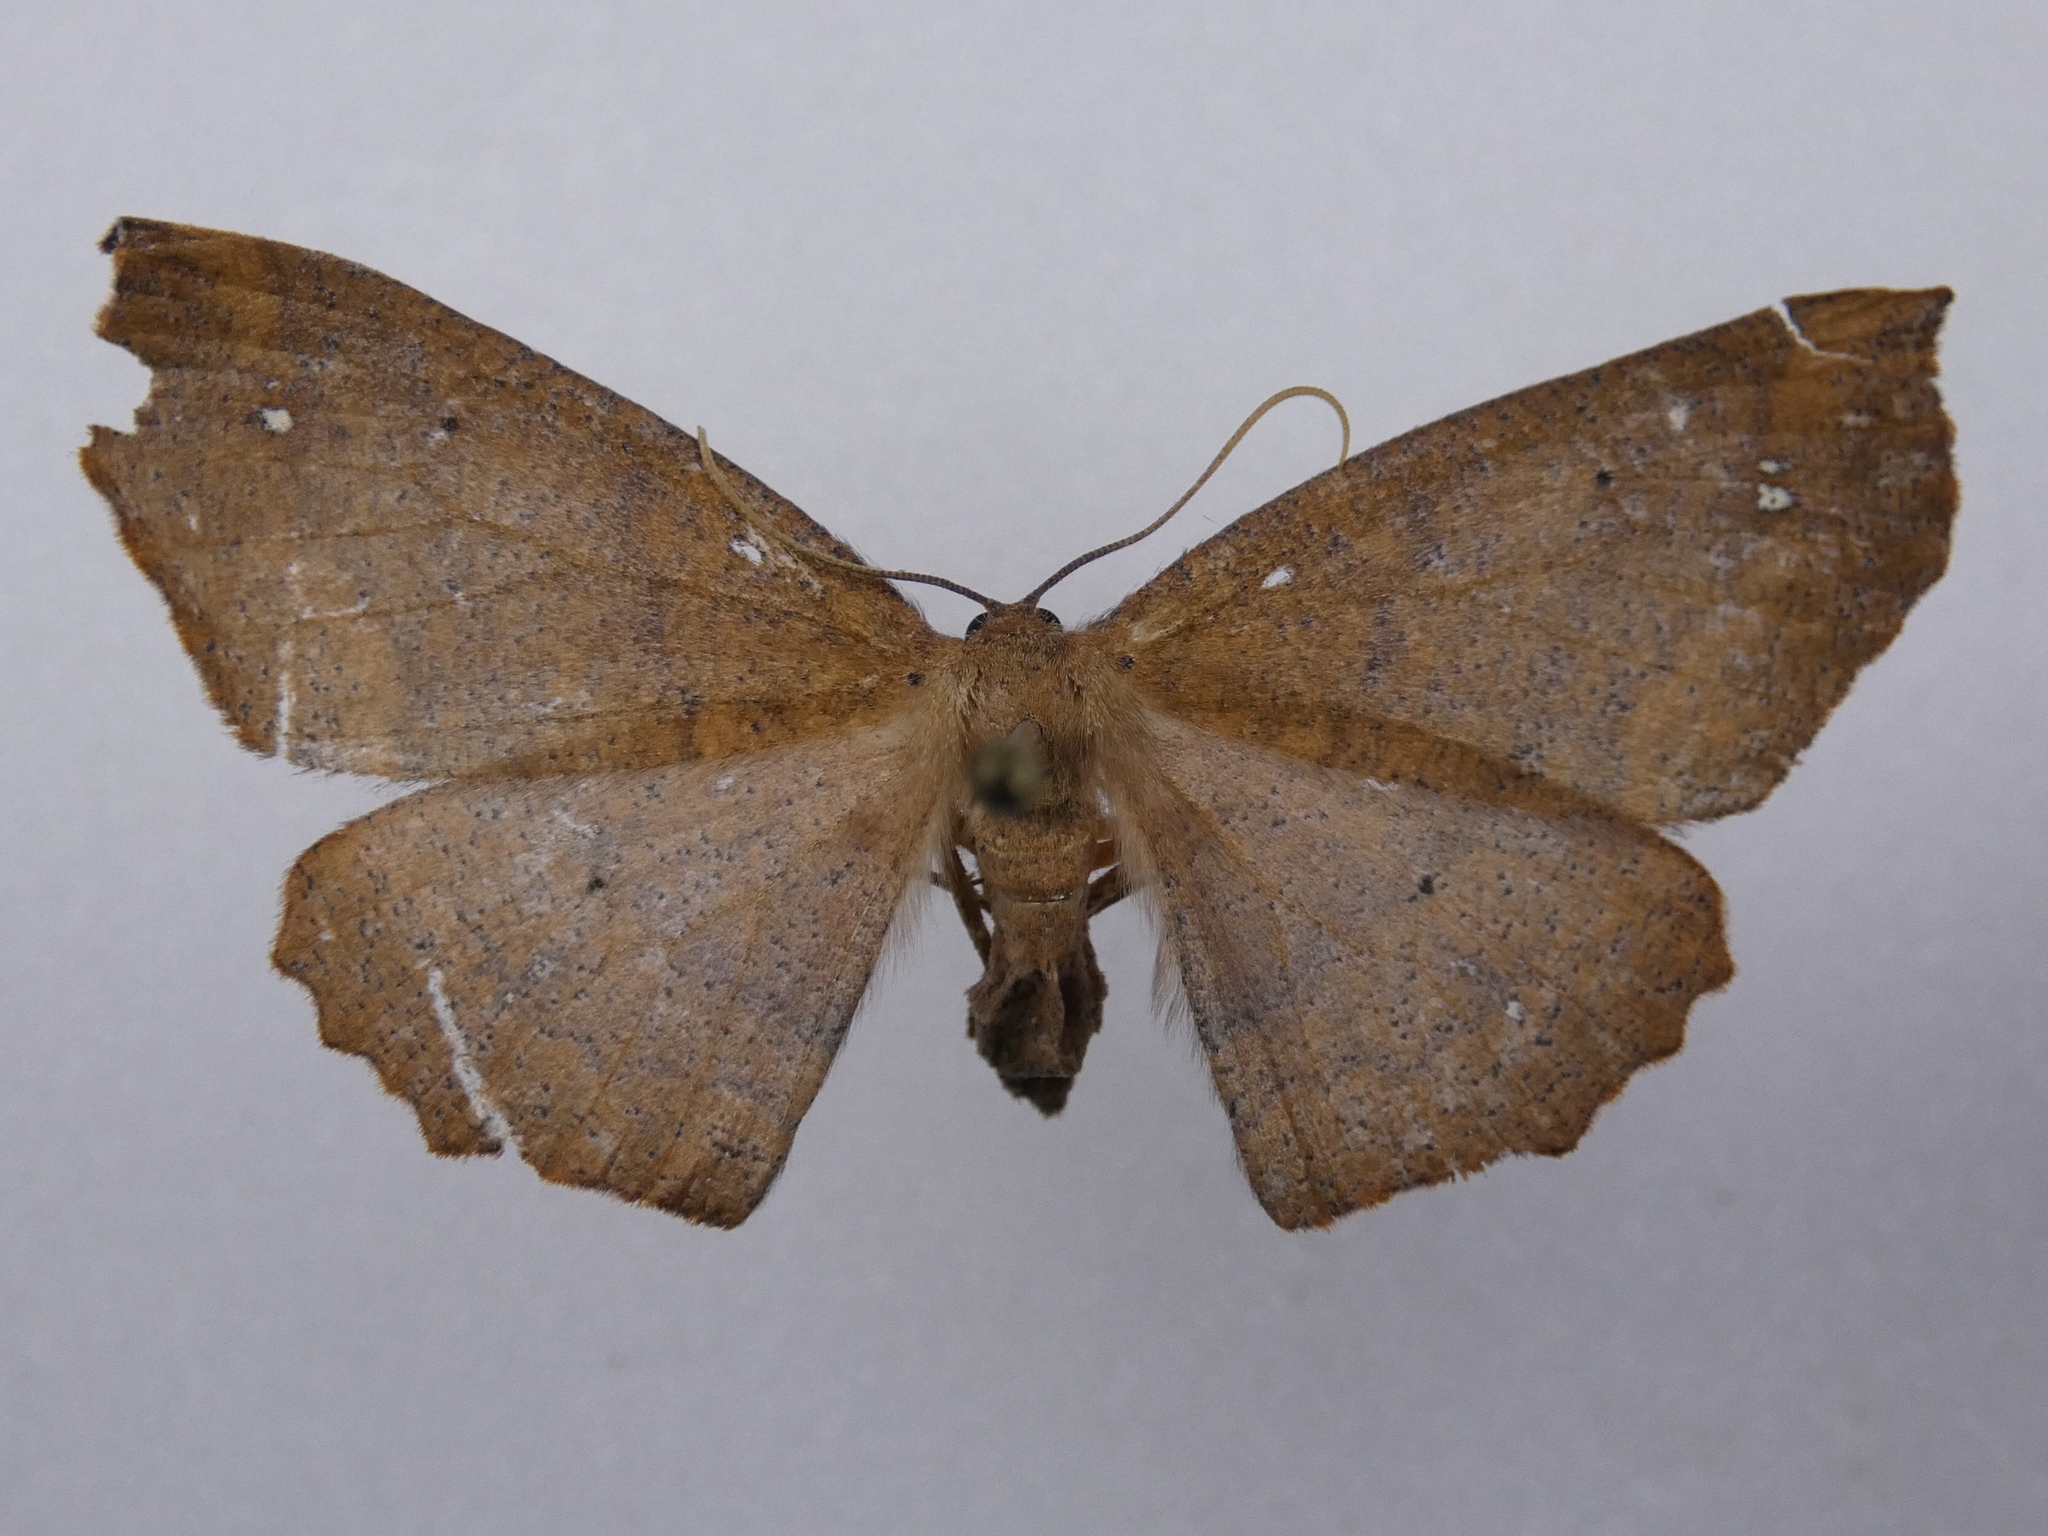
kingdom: Animalia
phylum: Arthropoda
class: Insecta
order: Lepidoptera
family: Geometridae
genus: Xyridacma
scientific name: Xyridacma ustaria
